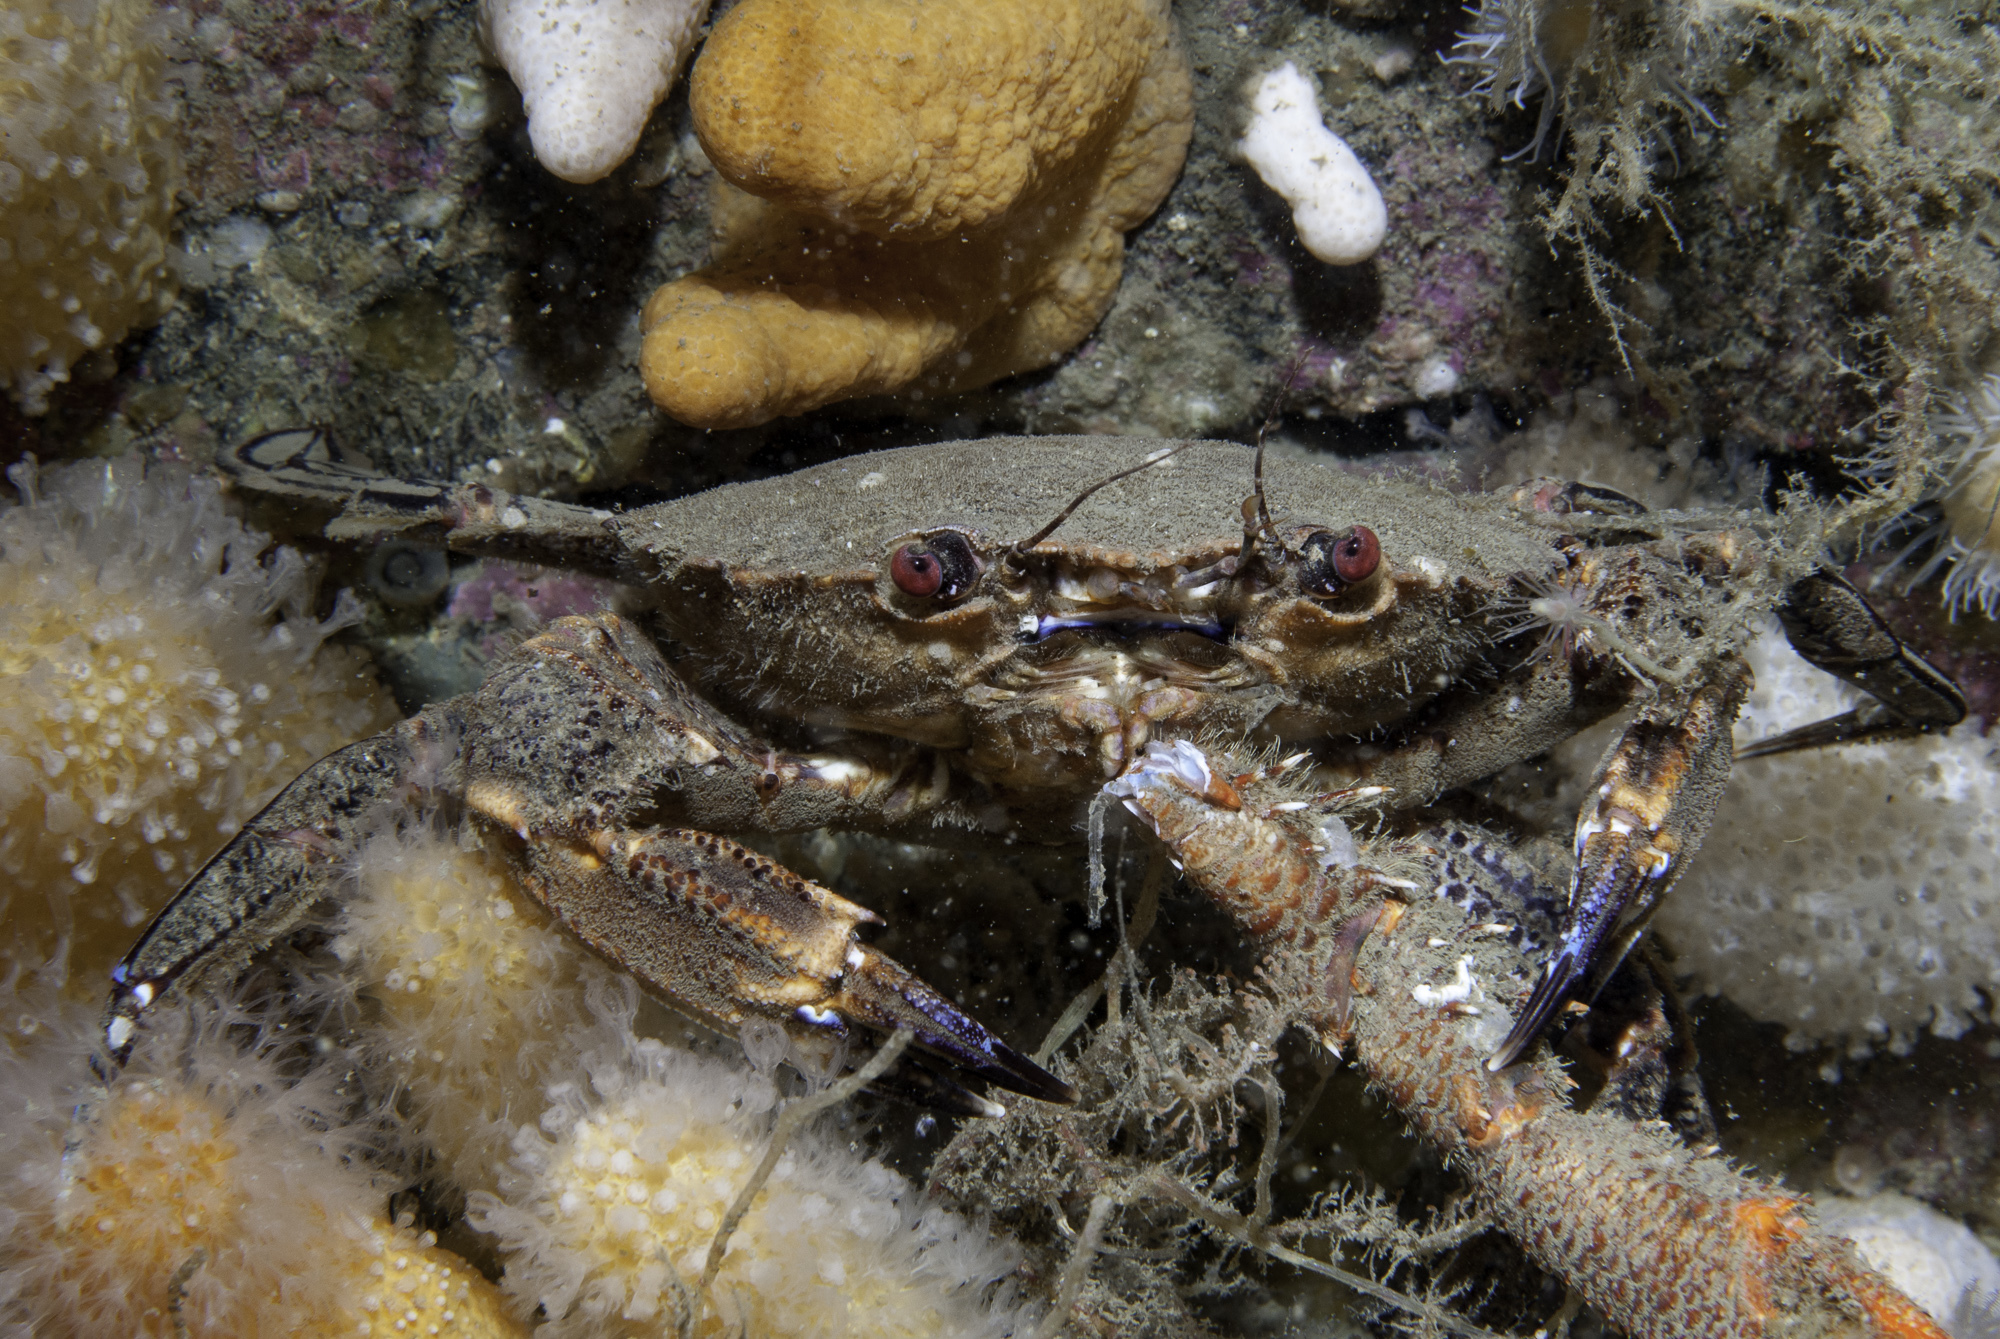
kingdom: Animalia
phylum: Arthropoda
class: Malacostraca
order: Decapoda
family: Polybiidae
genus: Necora
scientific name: Necora puber
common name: Velvet swimming crab
